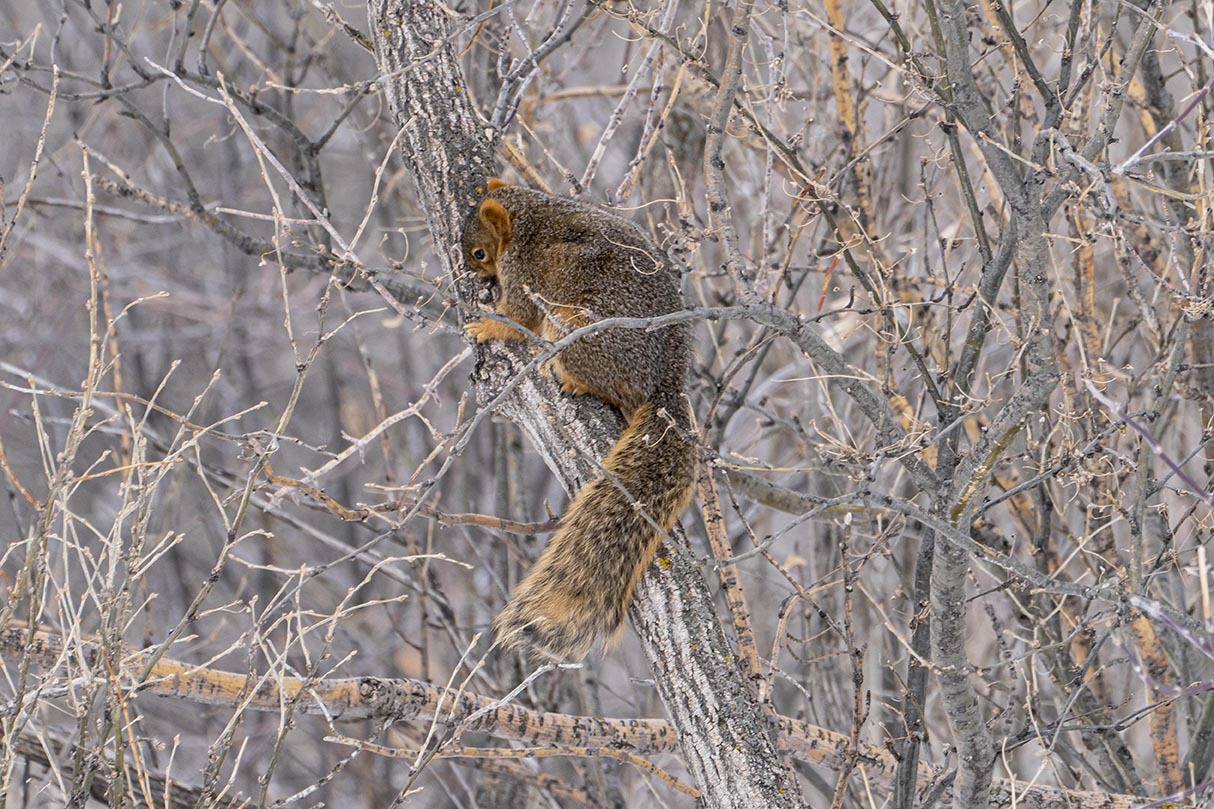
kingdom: Animalia
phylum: Chordata
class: Mammalia
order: Rodentia
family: Sciuridae
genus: Sciurus
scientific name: Sciurus niger
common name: Fox squirrel
